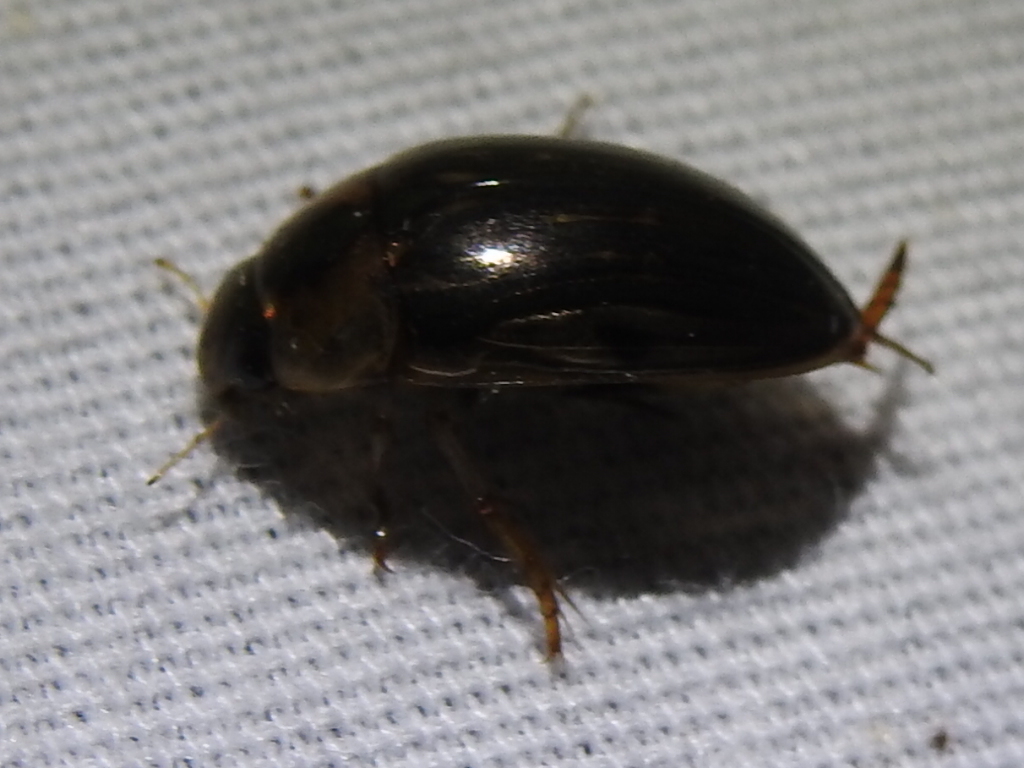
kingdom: Animalia
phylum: Arthropoda
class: Insecta
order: Coleoptera
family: Hydrophilidae
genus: Tropisternus
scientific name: Tropisternus collaris
